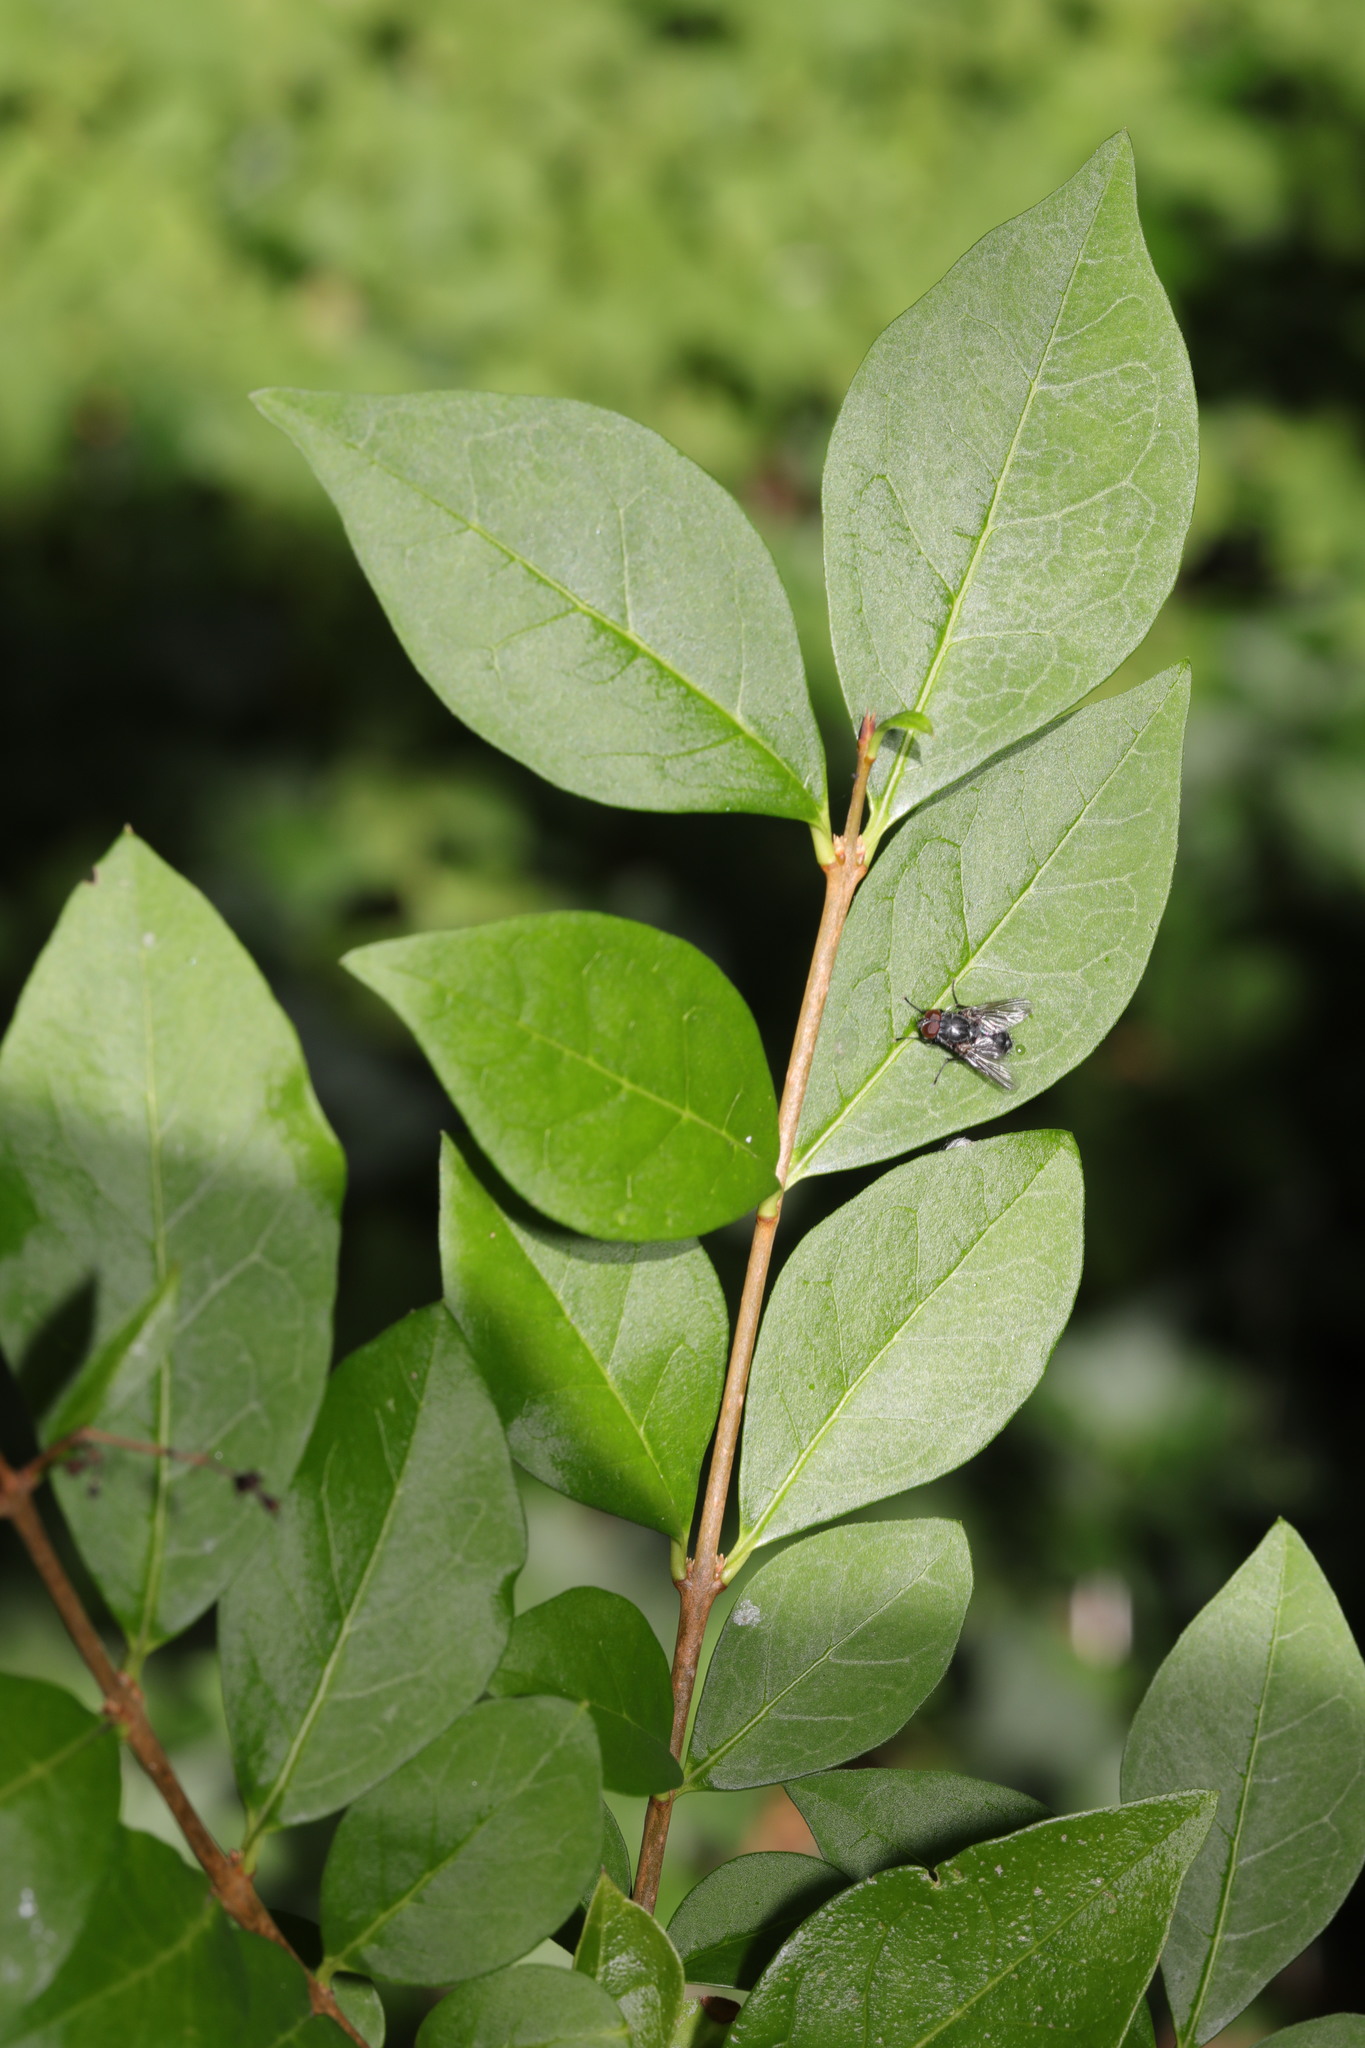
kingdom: Plantae
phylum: Tracheophyta
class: Magnoliopsida
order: Lamiales
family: Oleaceae
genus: Ligustrum
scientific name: Ligustrum ovalifolium
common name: California privet
